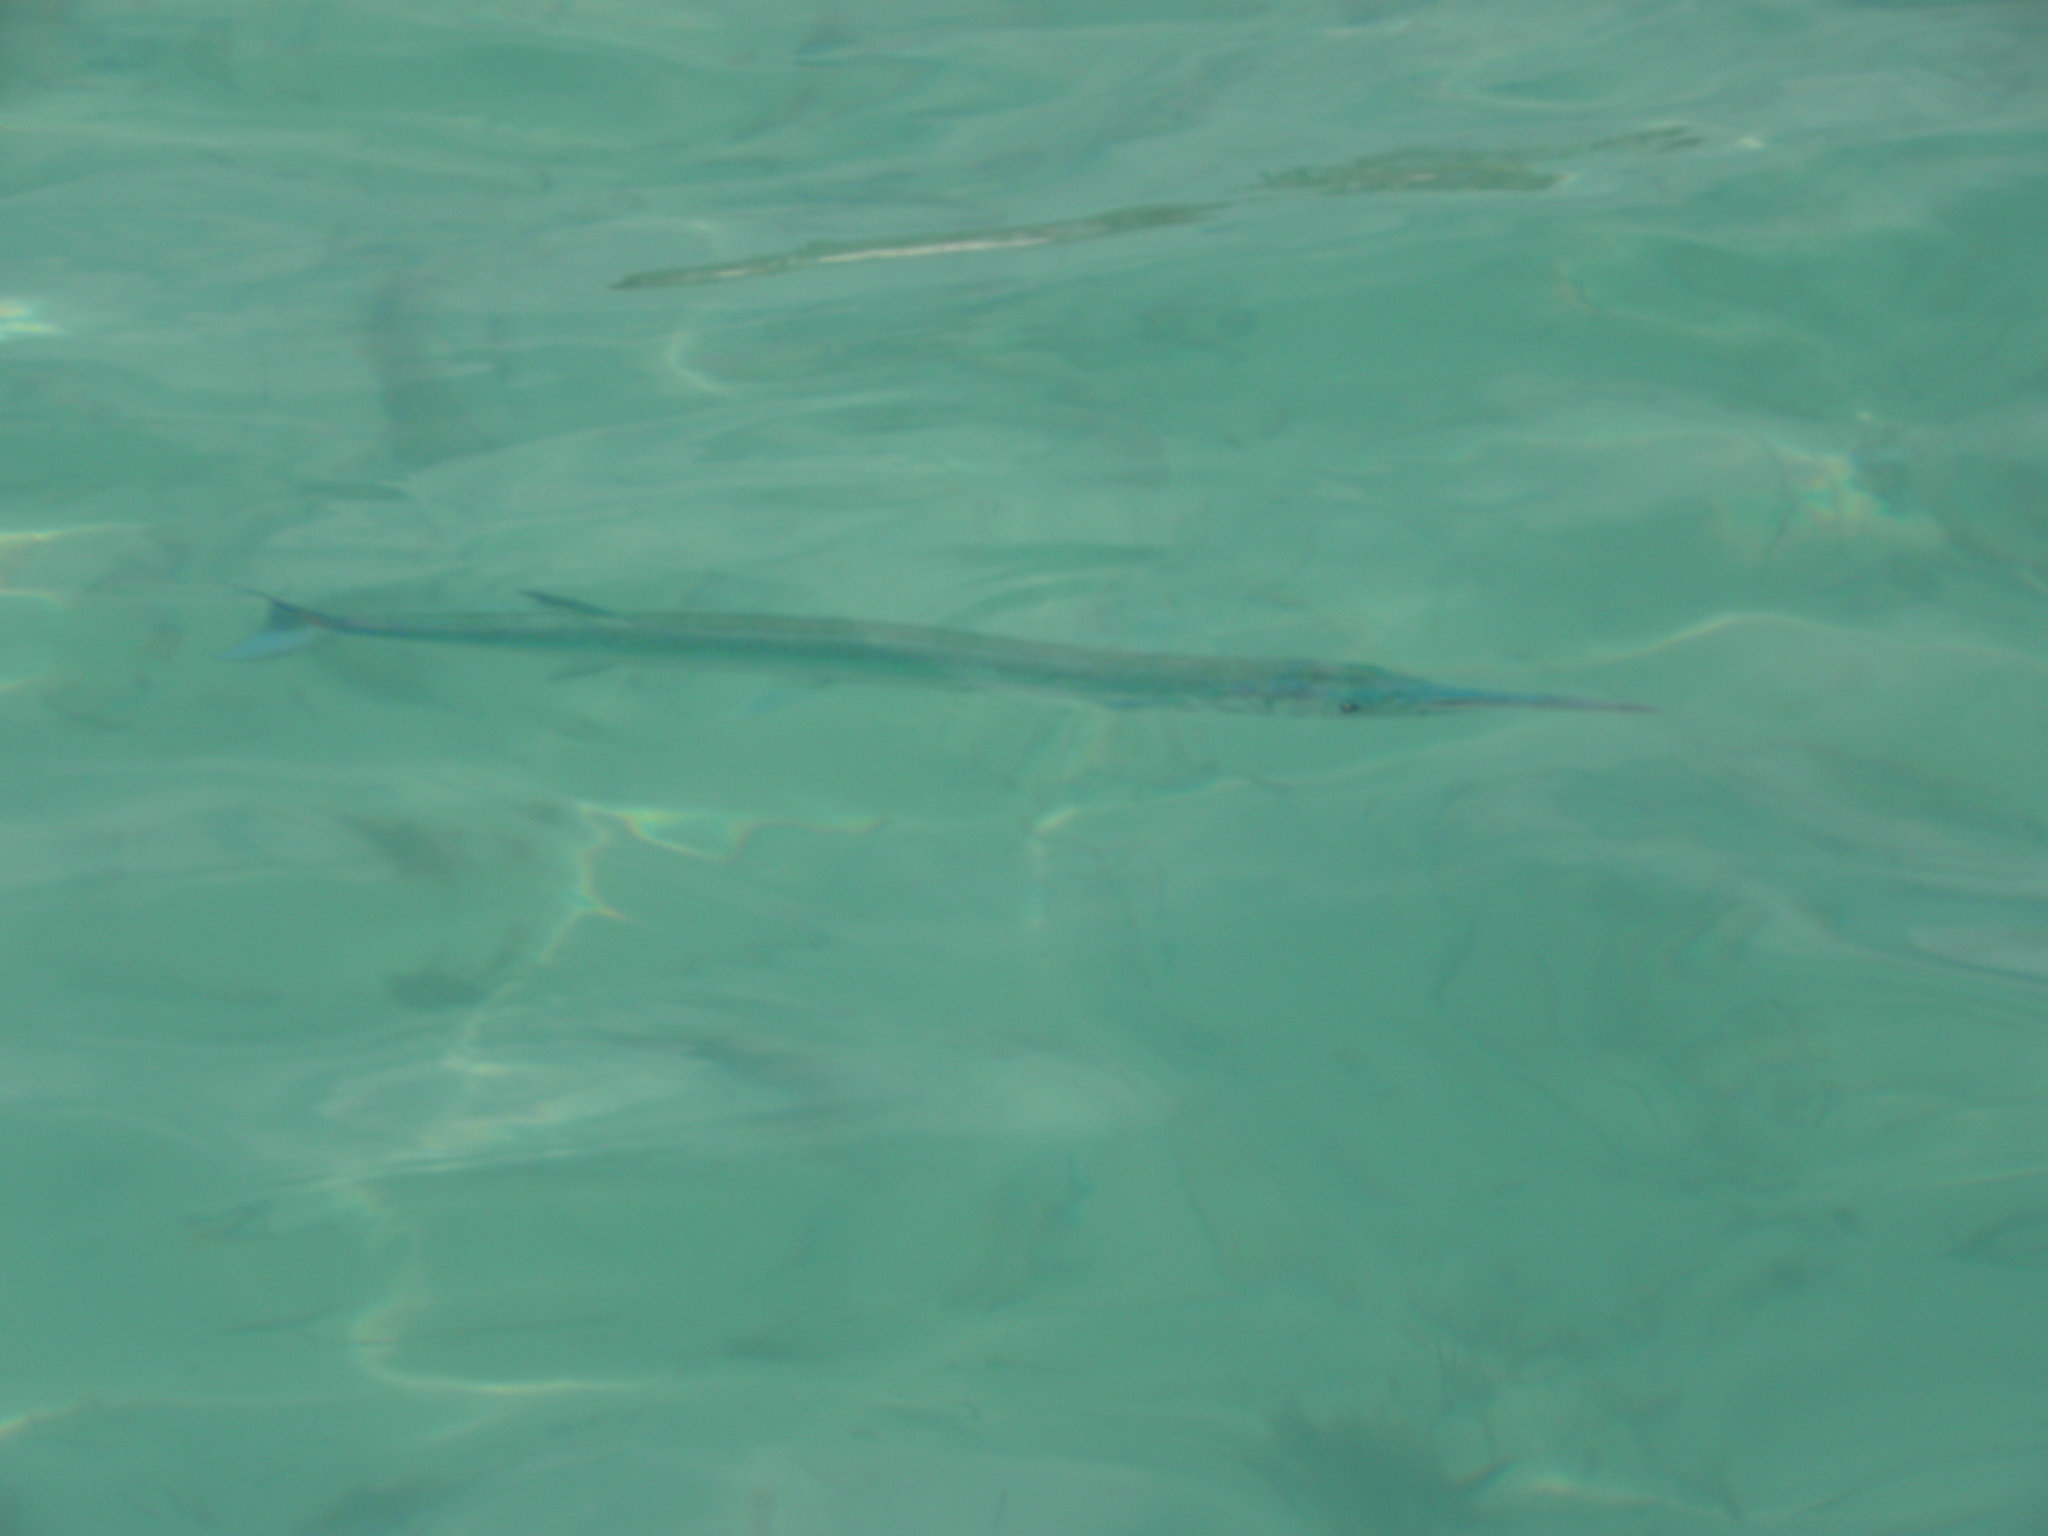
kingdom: Animalia
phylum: Chordata
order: Beloniformes
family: Belonidae
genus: Strongylura
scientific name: Strongylura marina
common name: Atlantic needlefish
